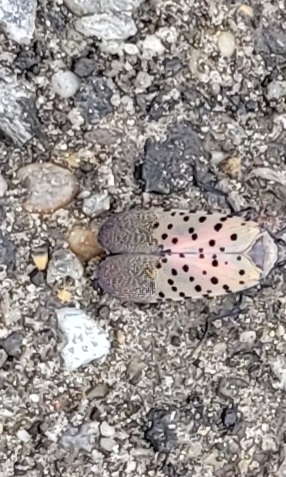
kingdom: Animalia
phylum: Arthropoda
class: Insecta
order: Hemiptera
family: Fulgoridae
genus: Lycorma
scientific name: Lycorma delicatula
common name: Spotted lanternfly
